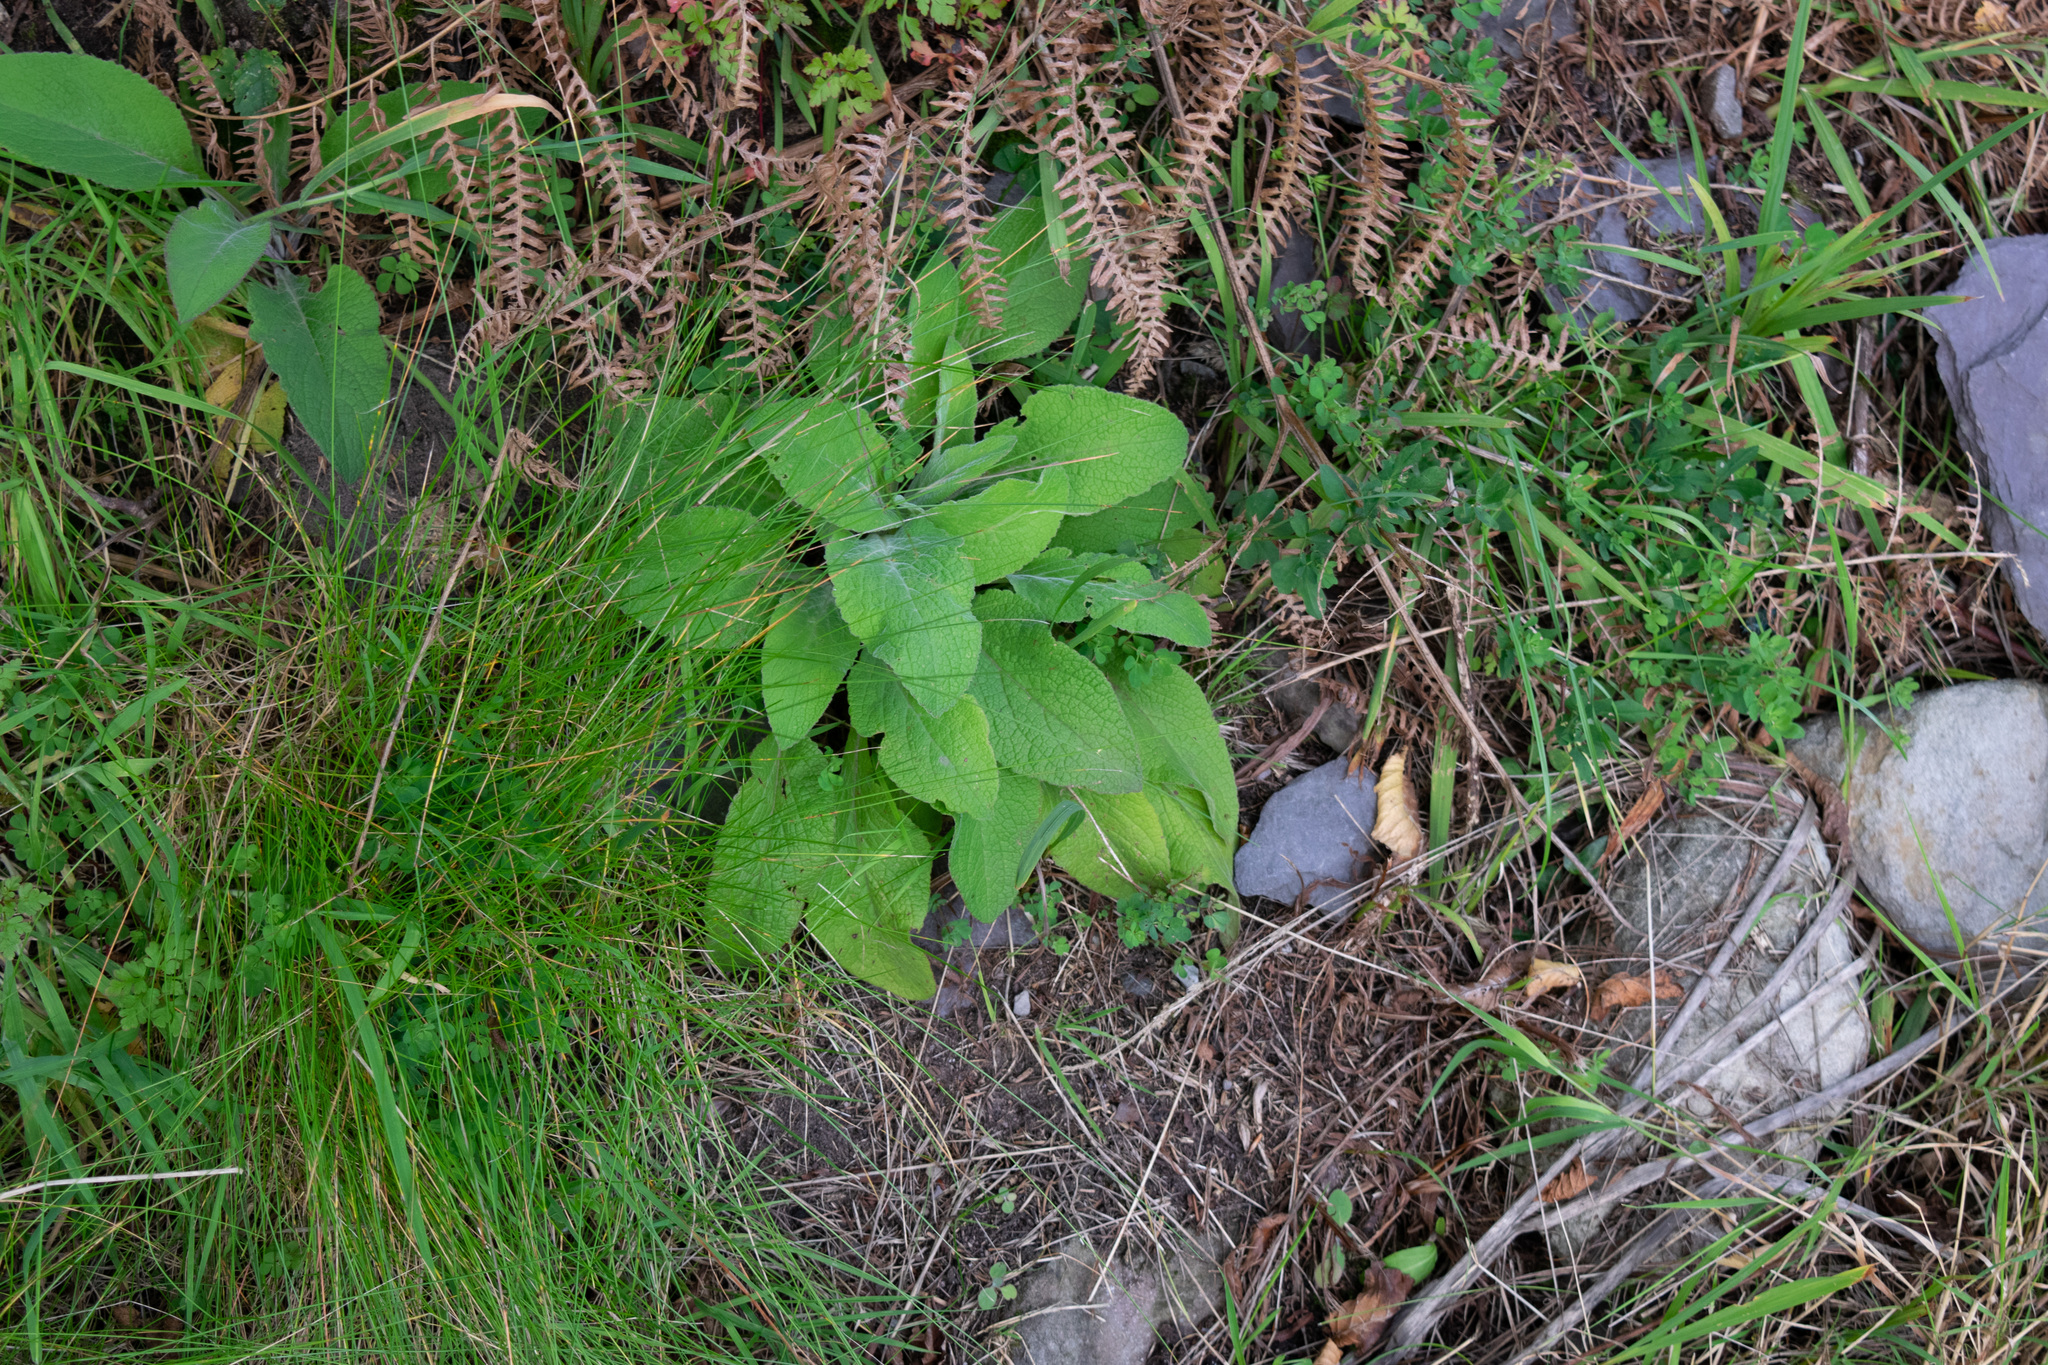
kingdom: Plantae
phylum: Tracheophyta
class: Magnoliopsida
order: Lamiales
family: Plantaginaceae
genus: Digitalis
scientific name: Digitalis purpurea
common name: Foxglove
